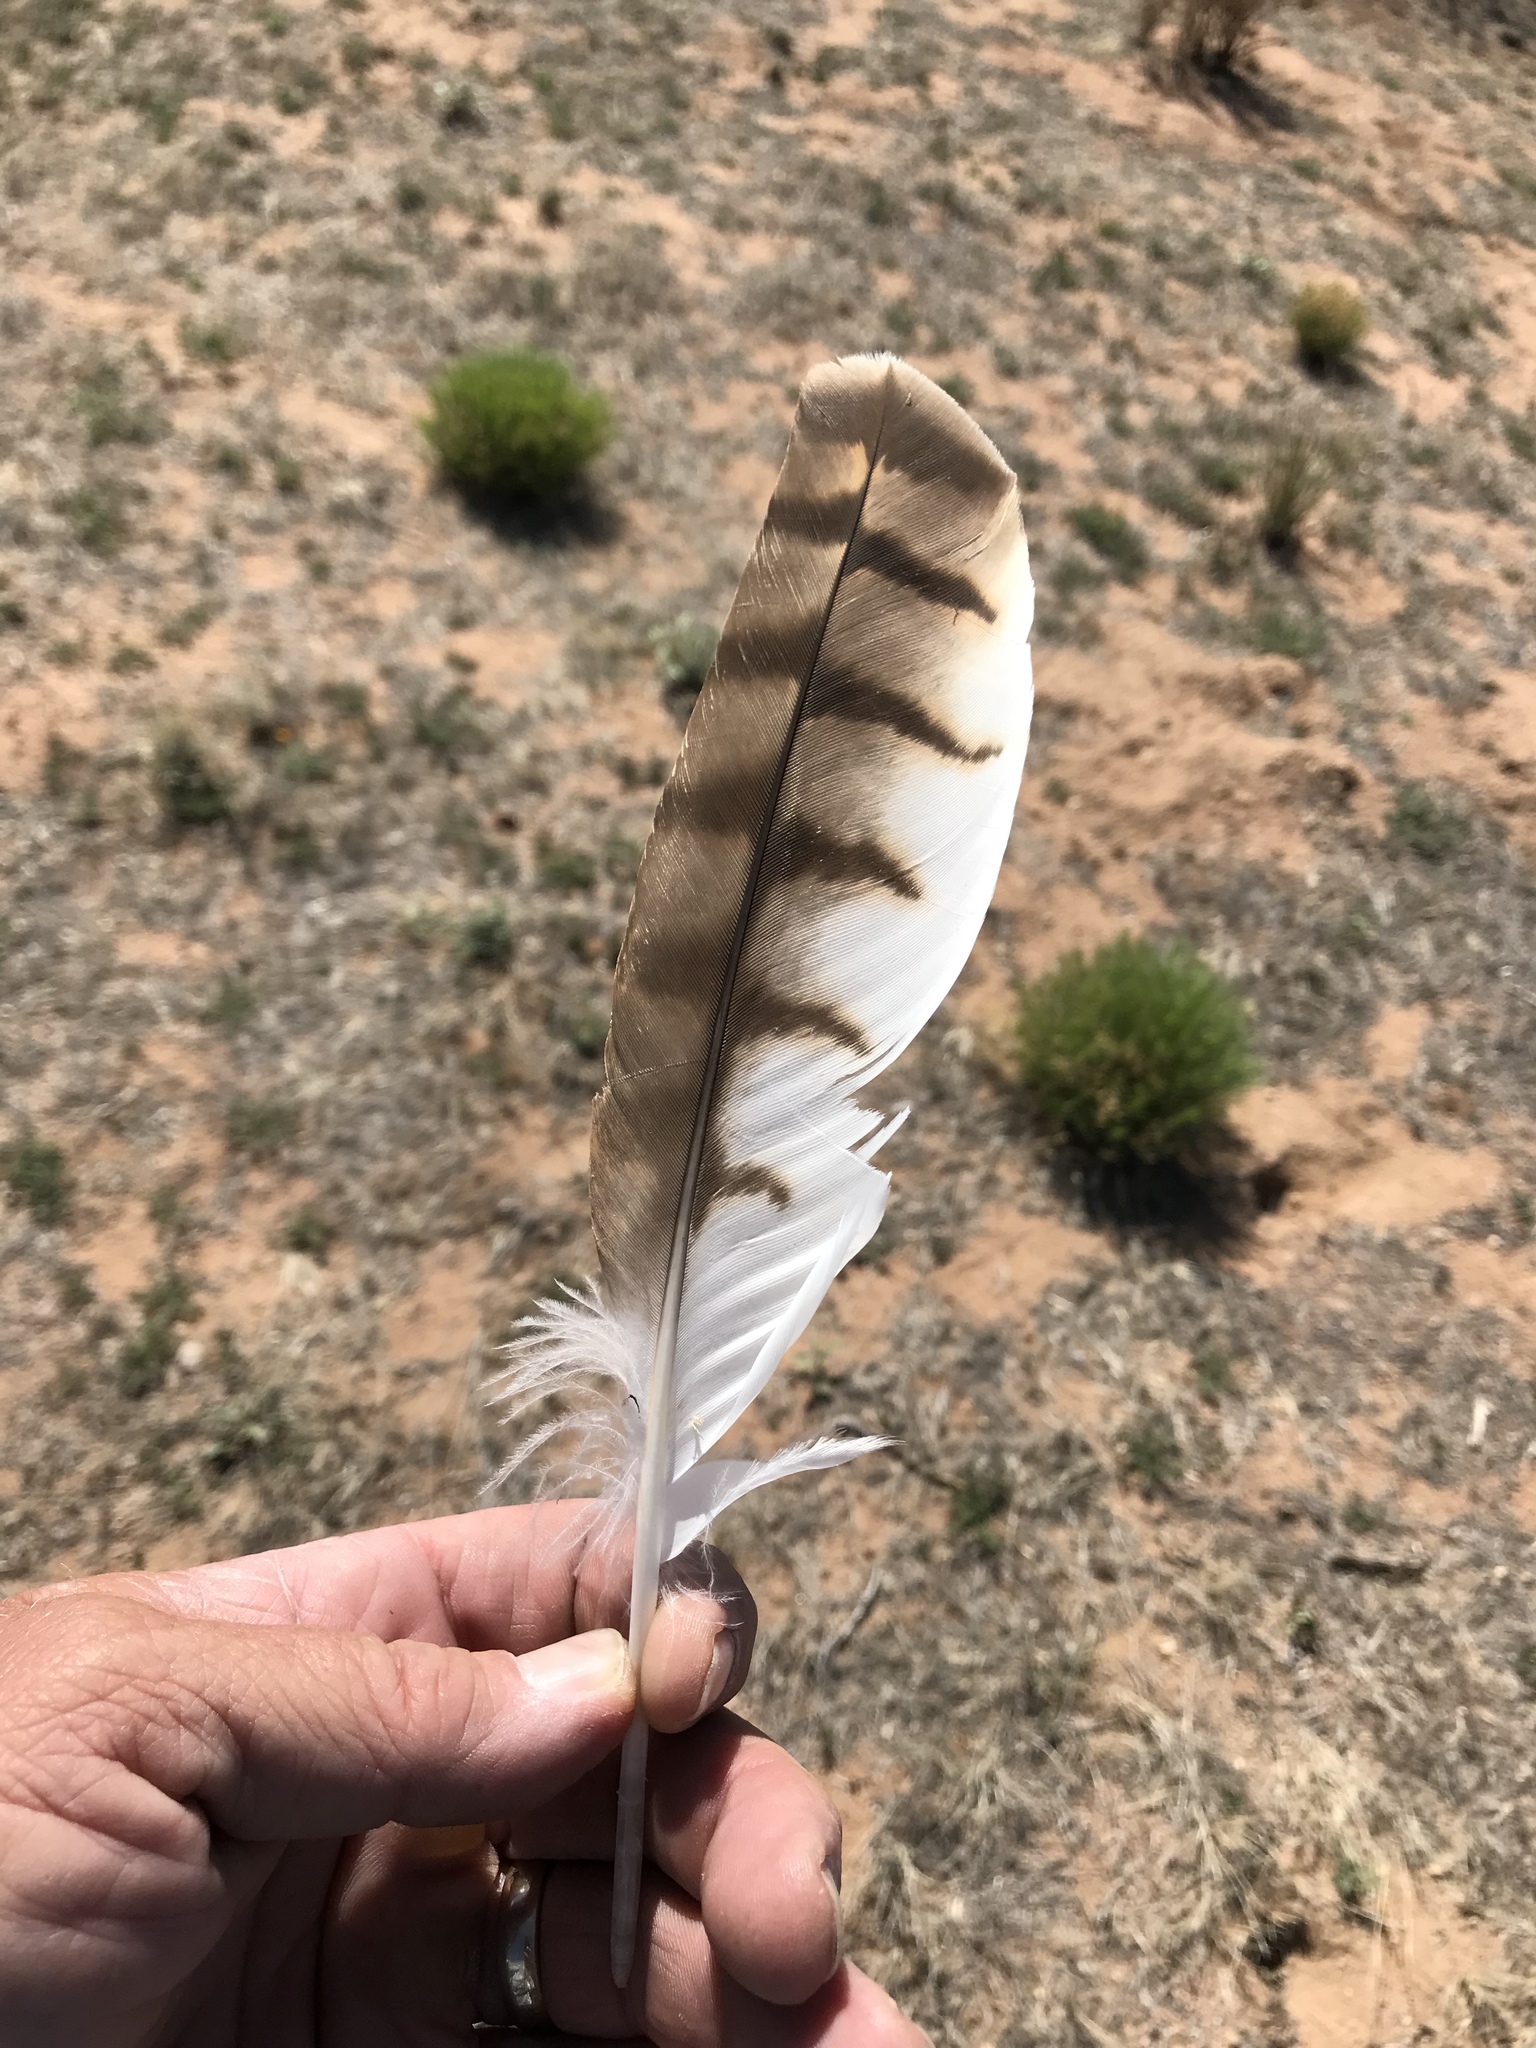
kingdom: Animalia
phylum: Chordata
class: Aves
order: Accipitriformes
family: Accipitridae
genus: Buteo
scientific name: Buteo jamaicensis
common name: Red-tailed hawk
